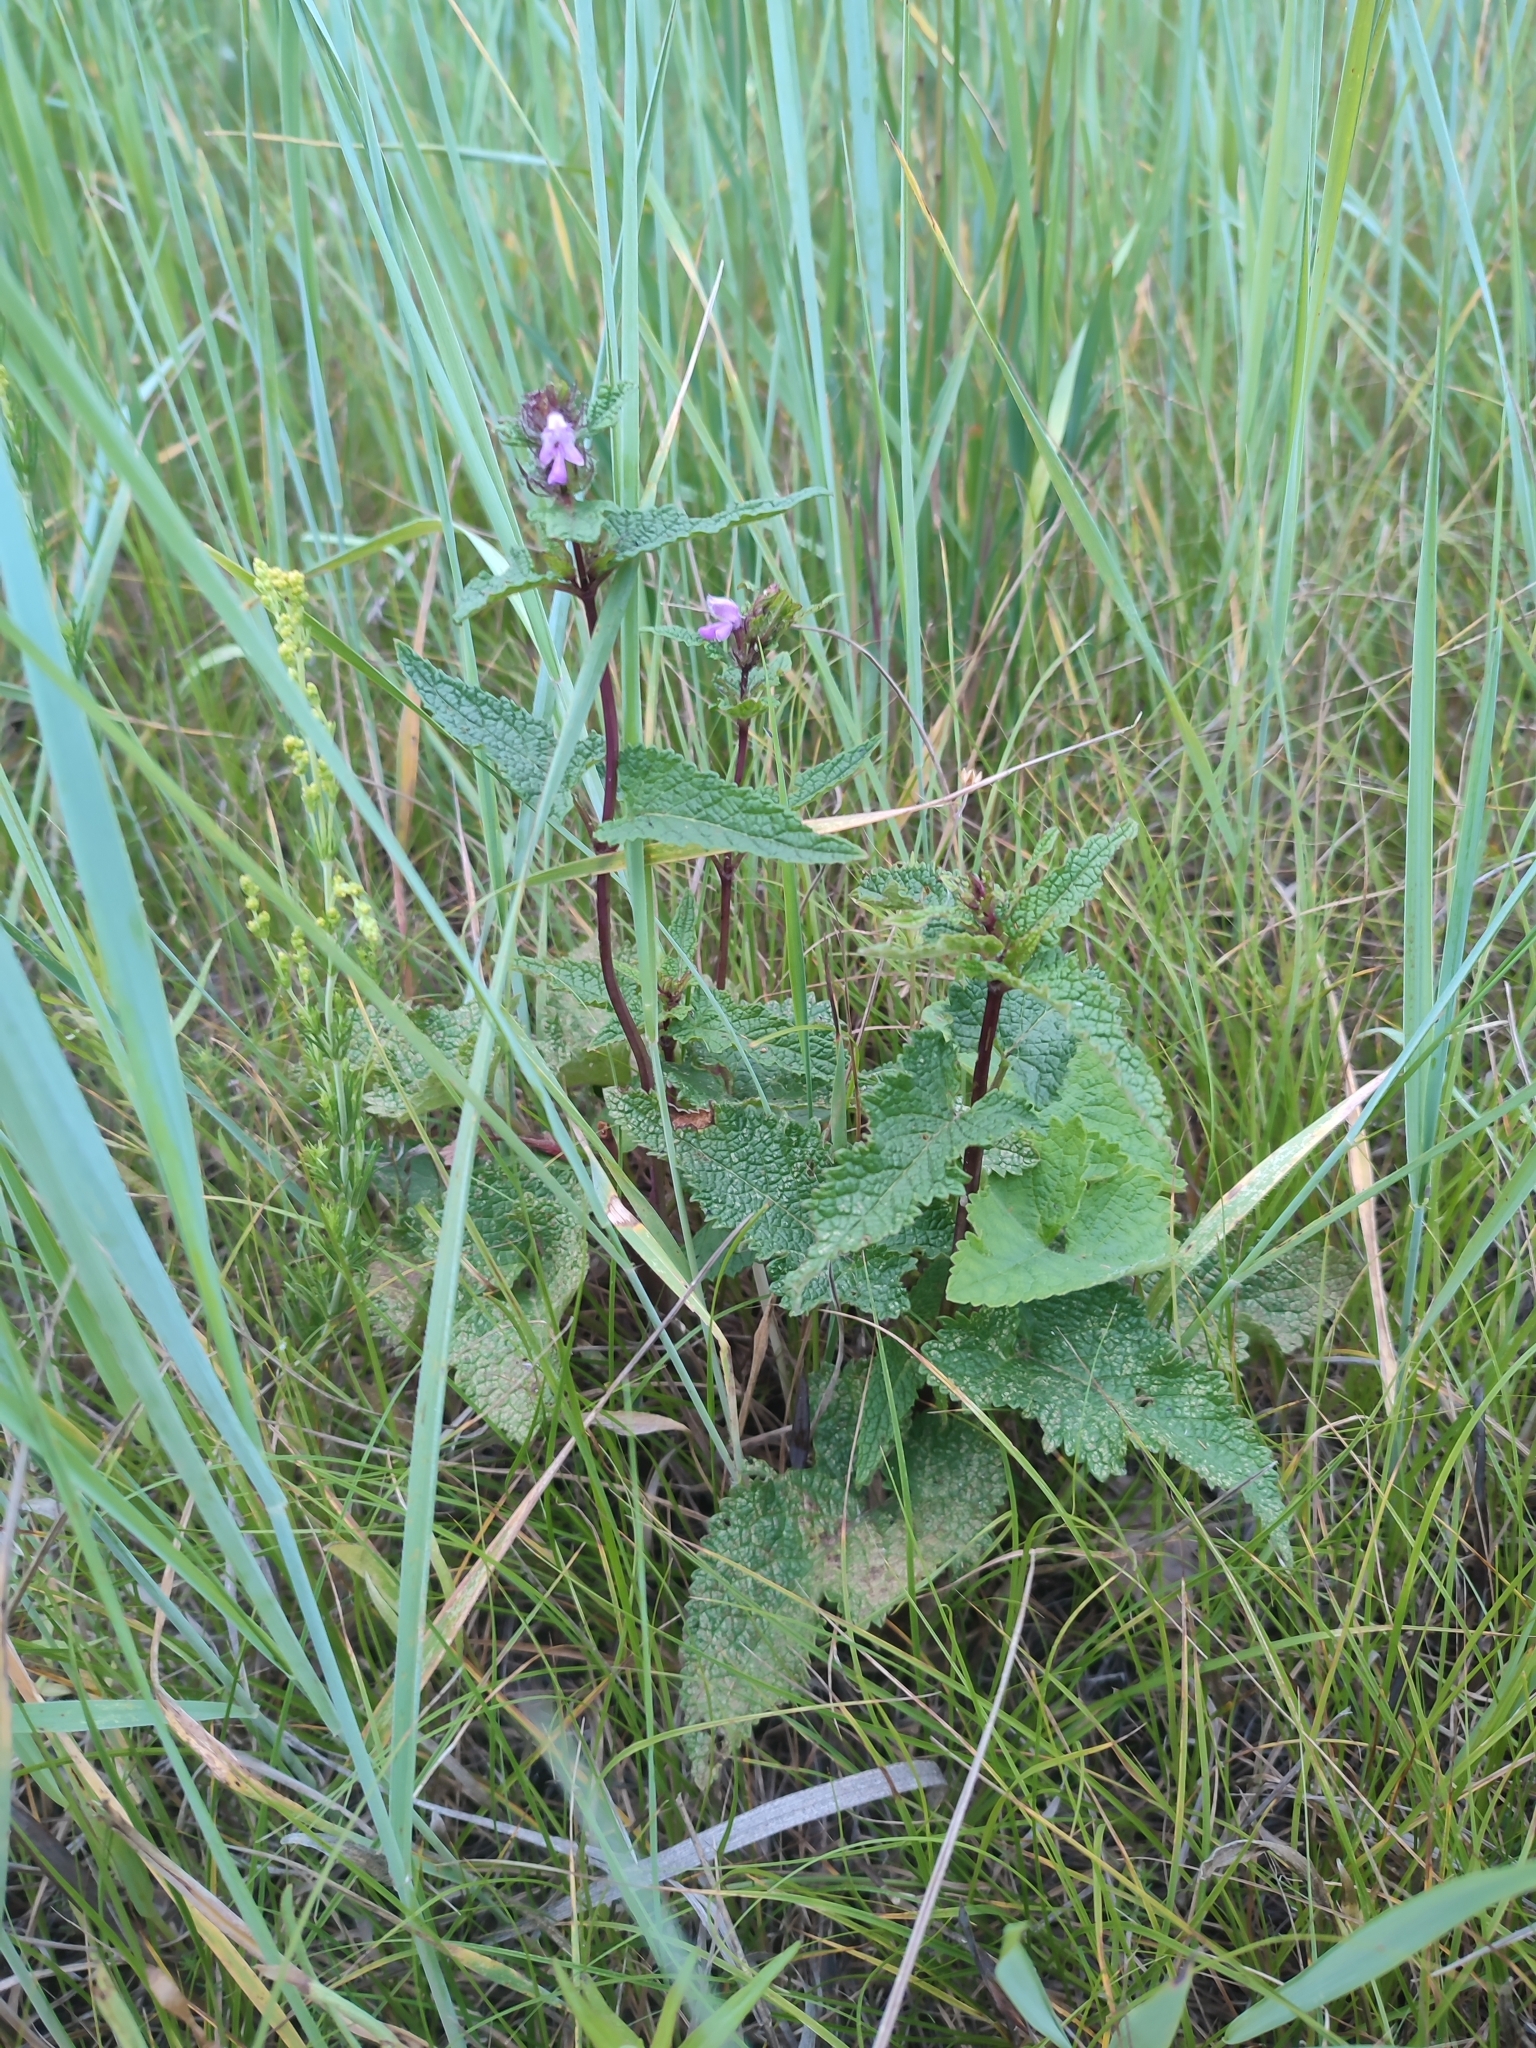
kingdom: Plantae
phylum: Tracheophyta
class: Magnoliopsida
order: Lamiales
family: Lamiaceae
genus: Phlomoides
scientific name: Phlomoides tuberosa
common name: Tuberous jerusalem sage
